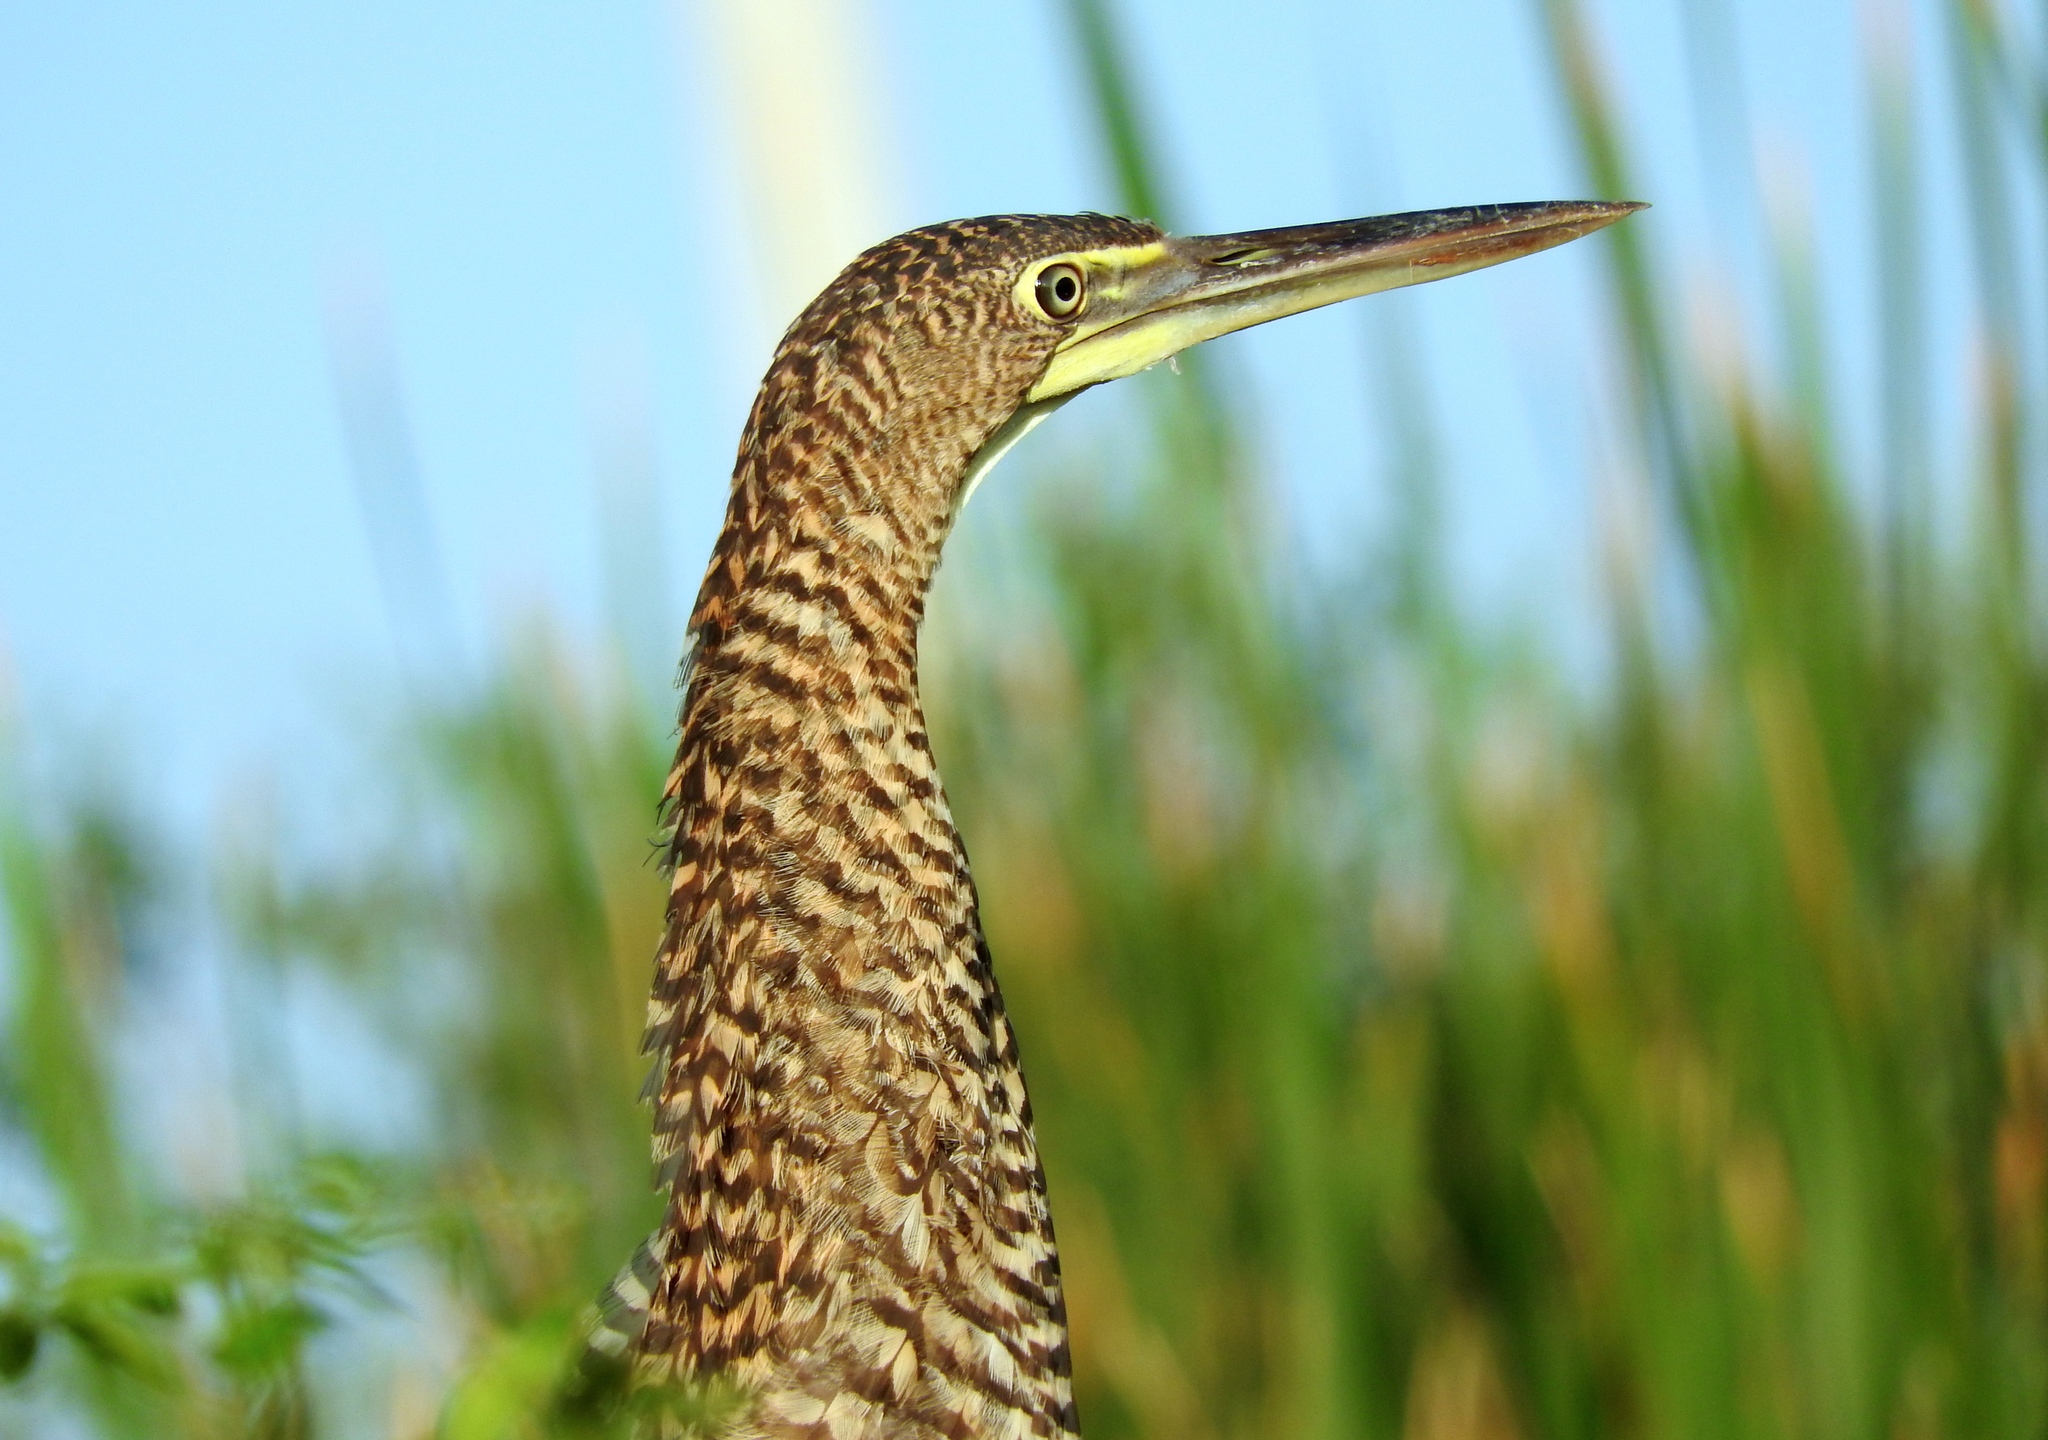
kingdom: Animalia
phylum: Chordata
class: Aves
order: Pelecaniformes
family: Ardeidae
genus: Tigrisoma
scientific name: Tigrisoma mexicanum
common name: Bare-throated tiger-heron
